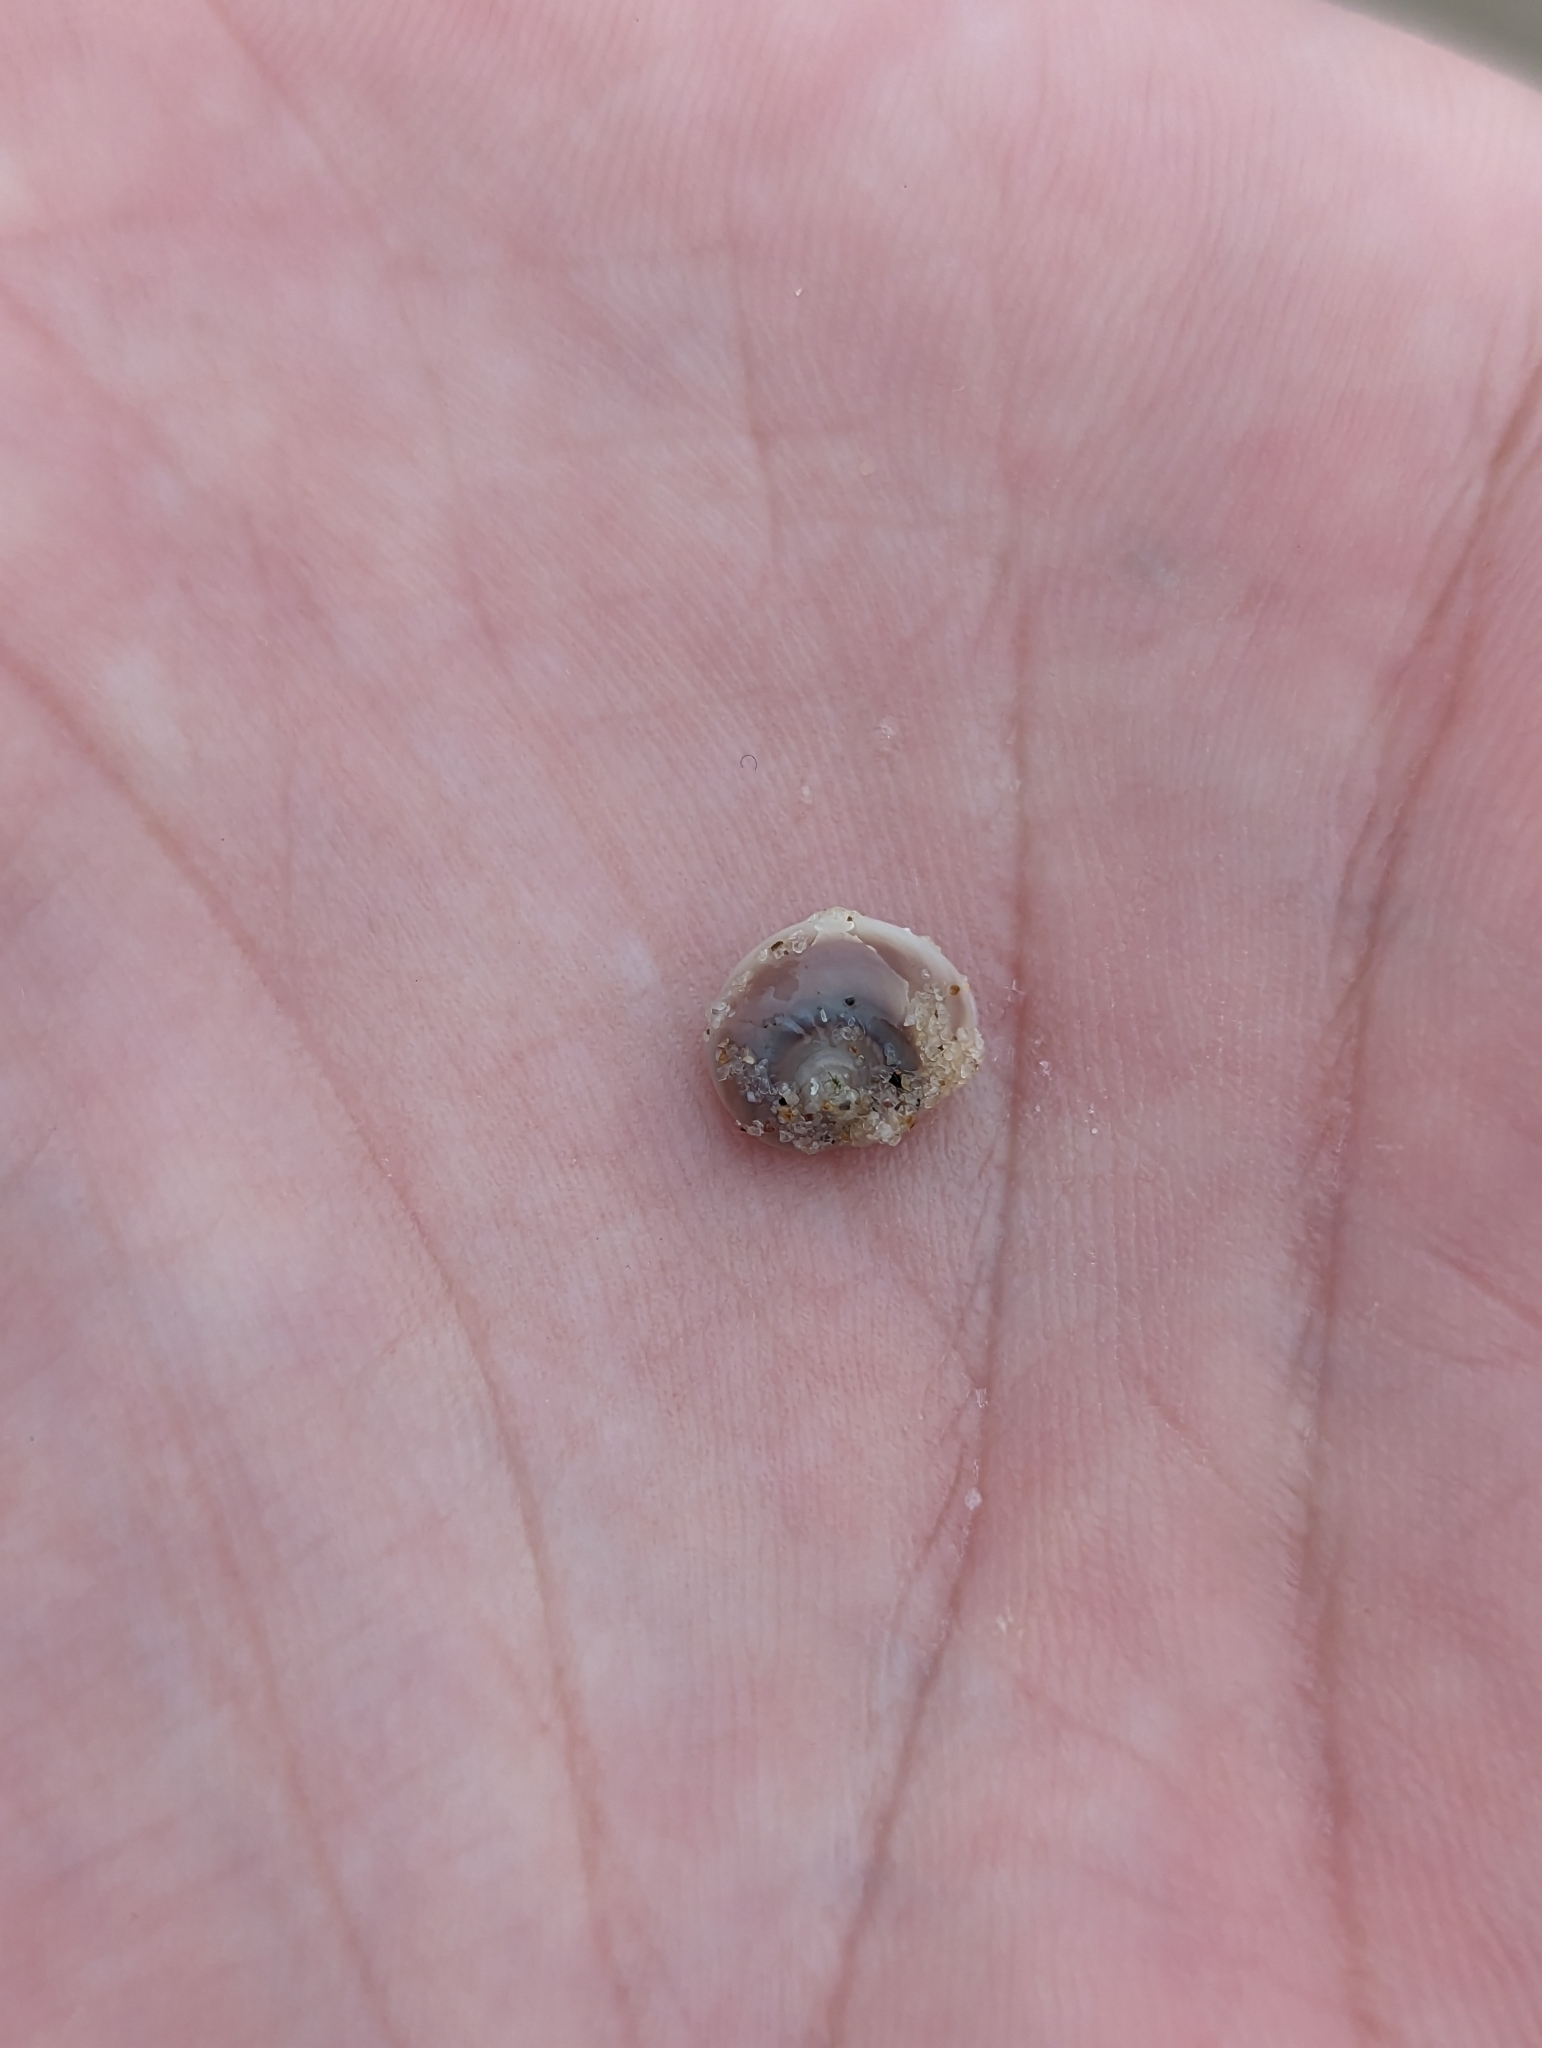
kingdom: Animalia
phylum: Mollusca
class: Gastropoda
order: Littorinimorpha
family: Naticidae
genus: Conuber
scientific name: Conuber incei
